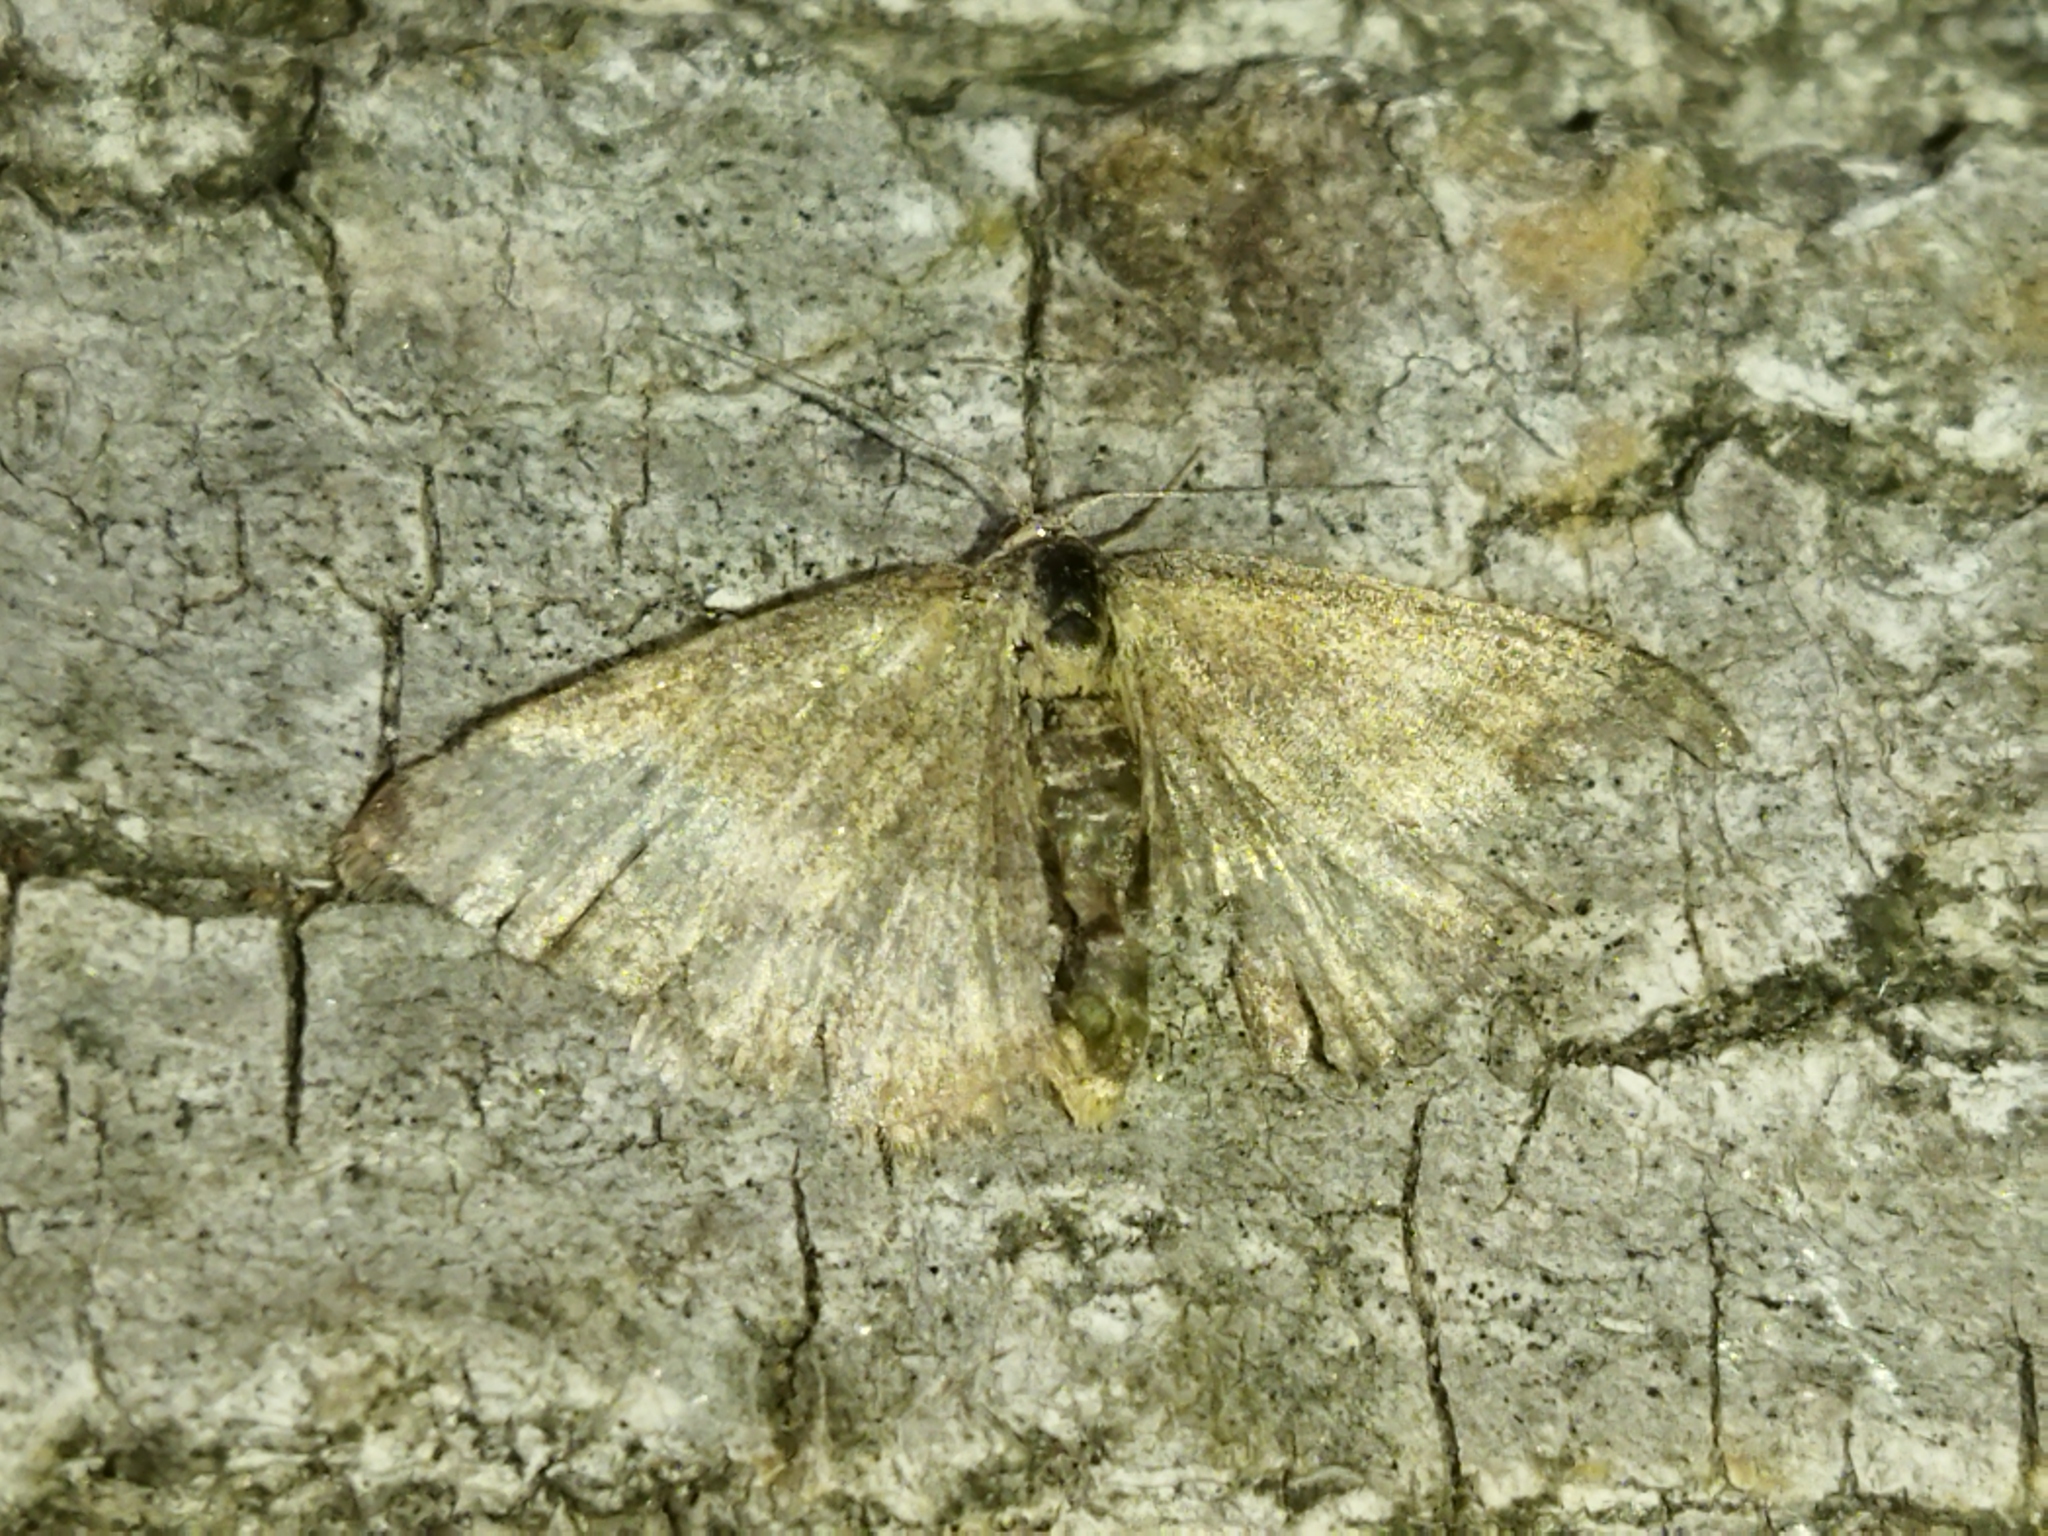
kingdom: Animalia
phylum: Arthropoda
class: Insecta
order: Lepidoptera
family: Geometridae
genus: Scopula
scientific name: Scopula immorata
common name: Lewes wave
